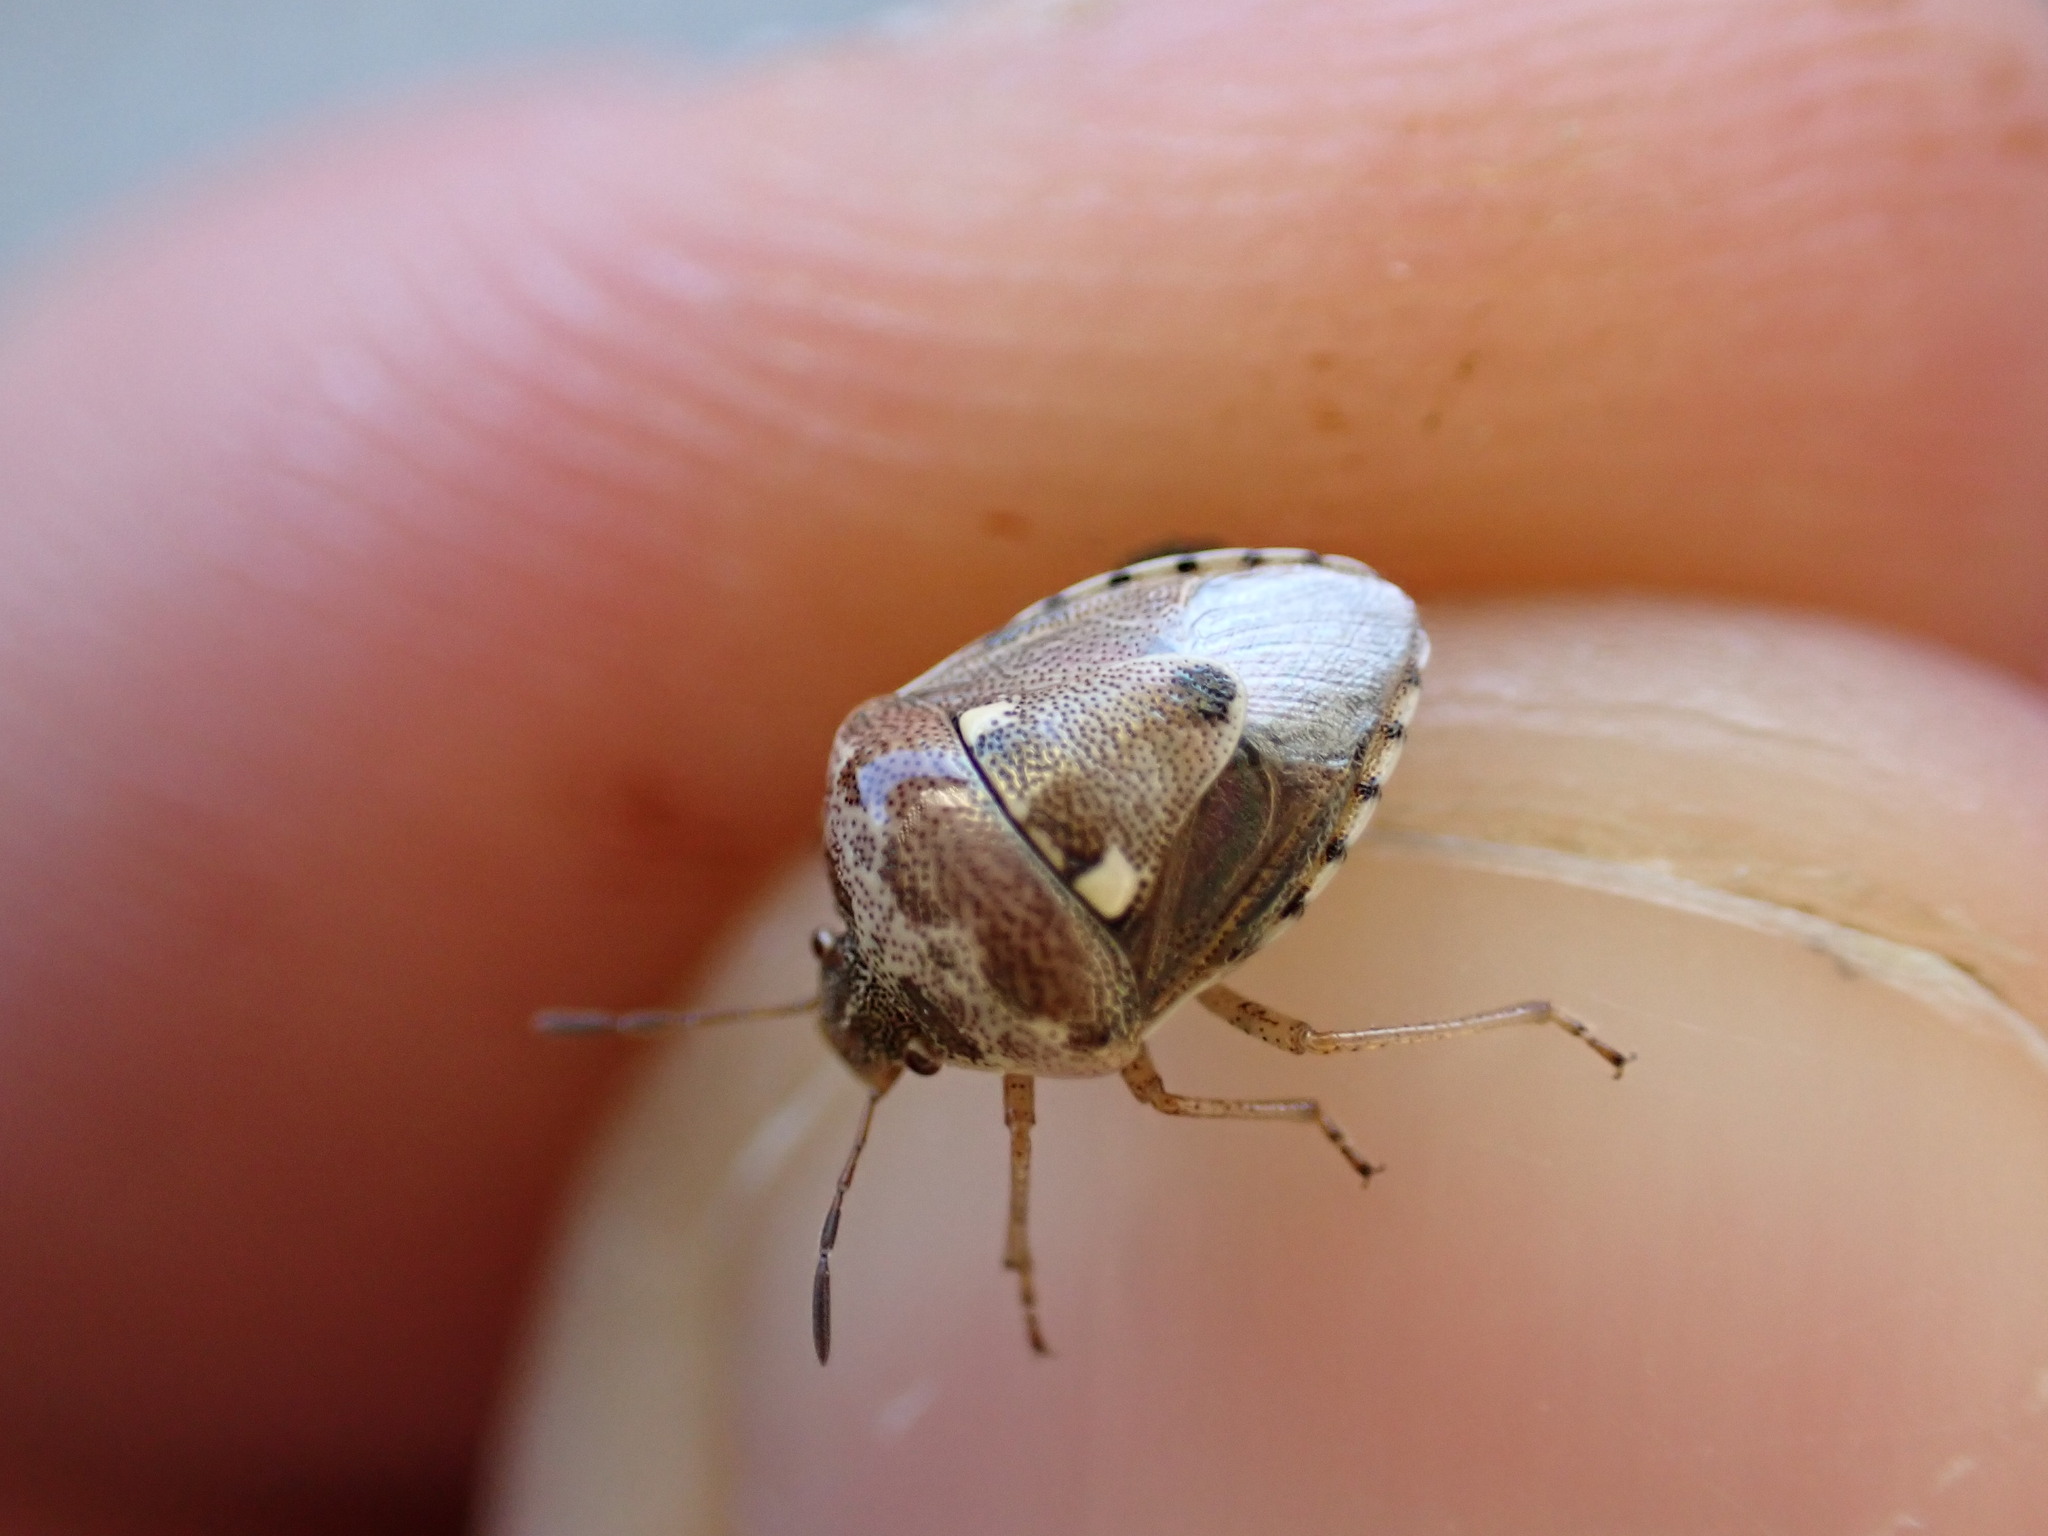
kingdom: Animalia
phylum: Arthropoda
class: Insecta
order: Hemiptera
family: Pentatomidae
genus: Stagonomus
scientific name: Stagonomus bipunctatus
